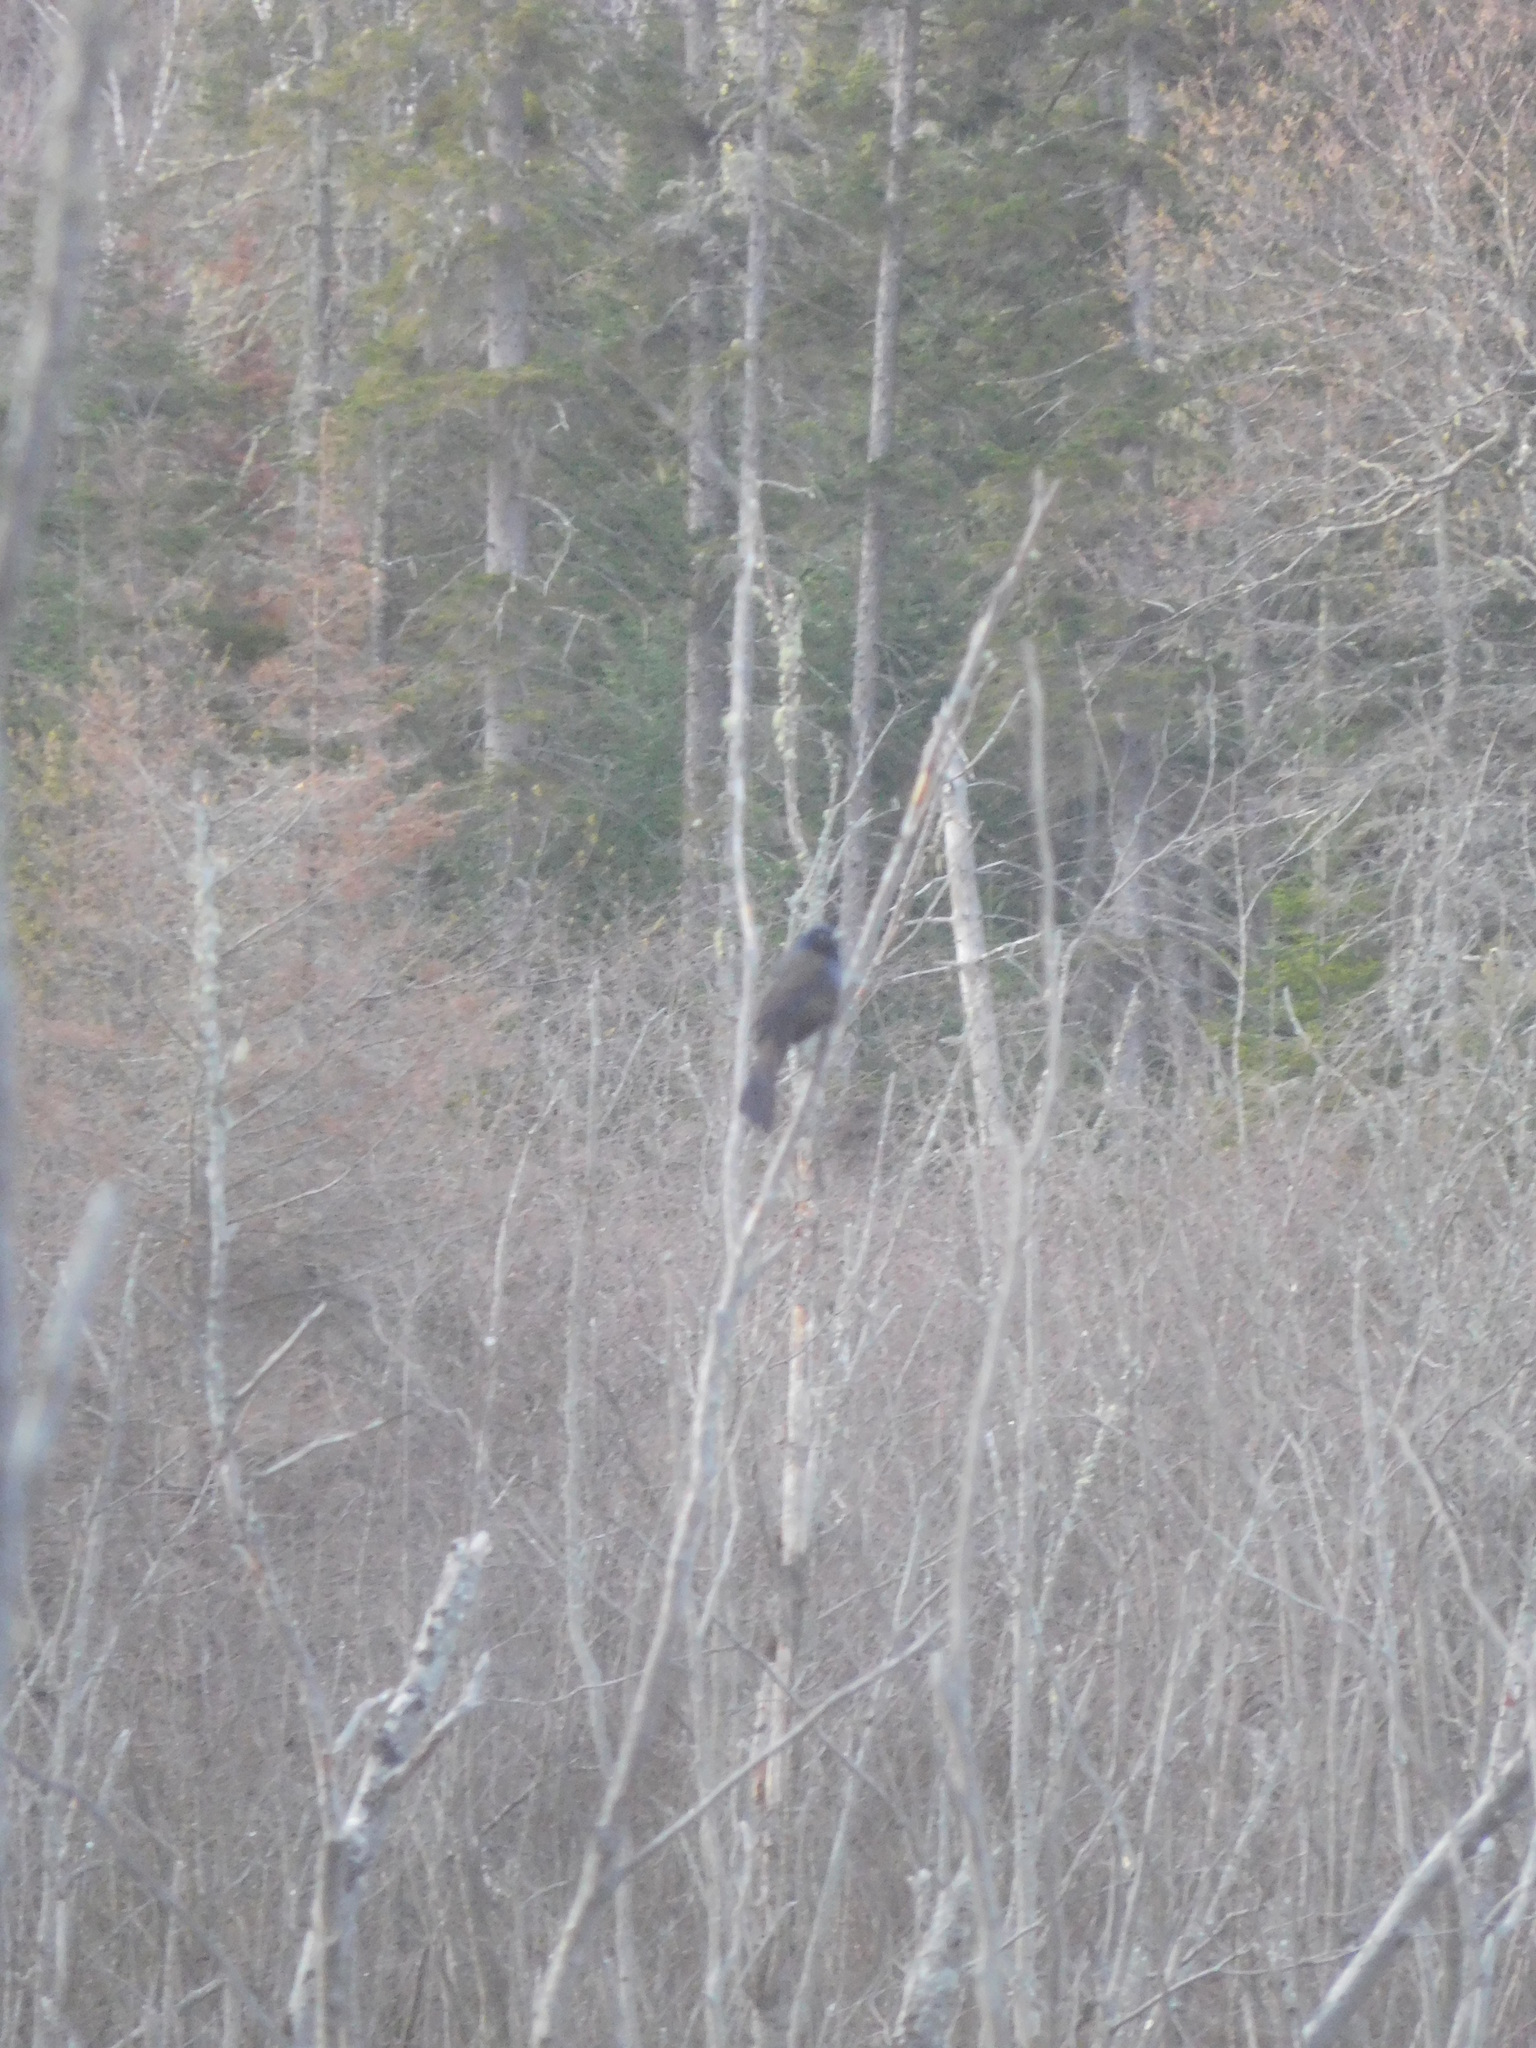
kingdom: Animalia
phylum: Chordata
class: Aves
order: Passeriformes
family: Icteridae
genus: Quiscalus
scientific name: Quiscalus quiscula
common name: Common grackle
